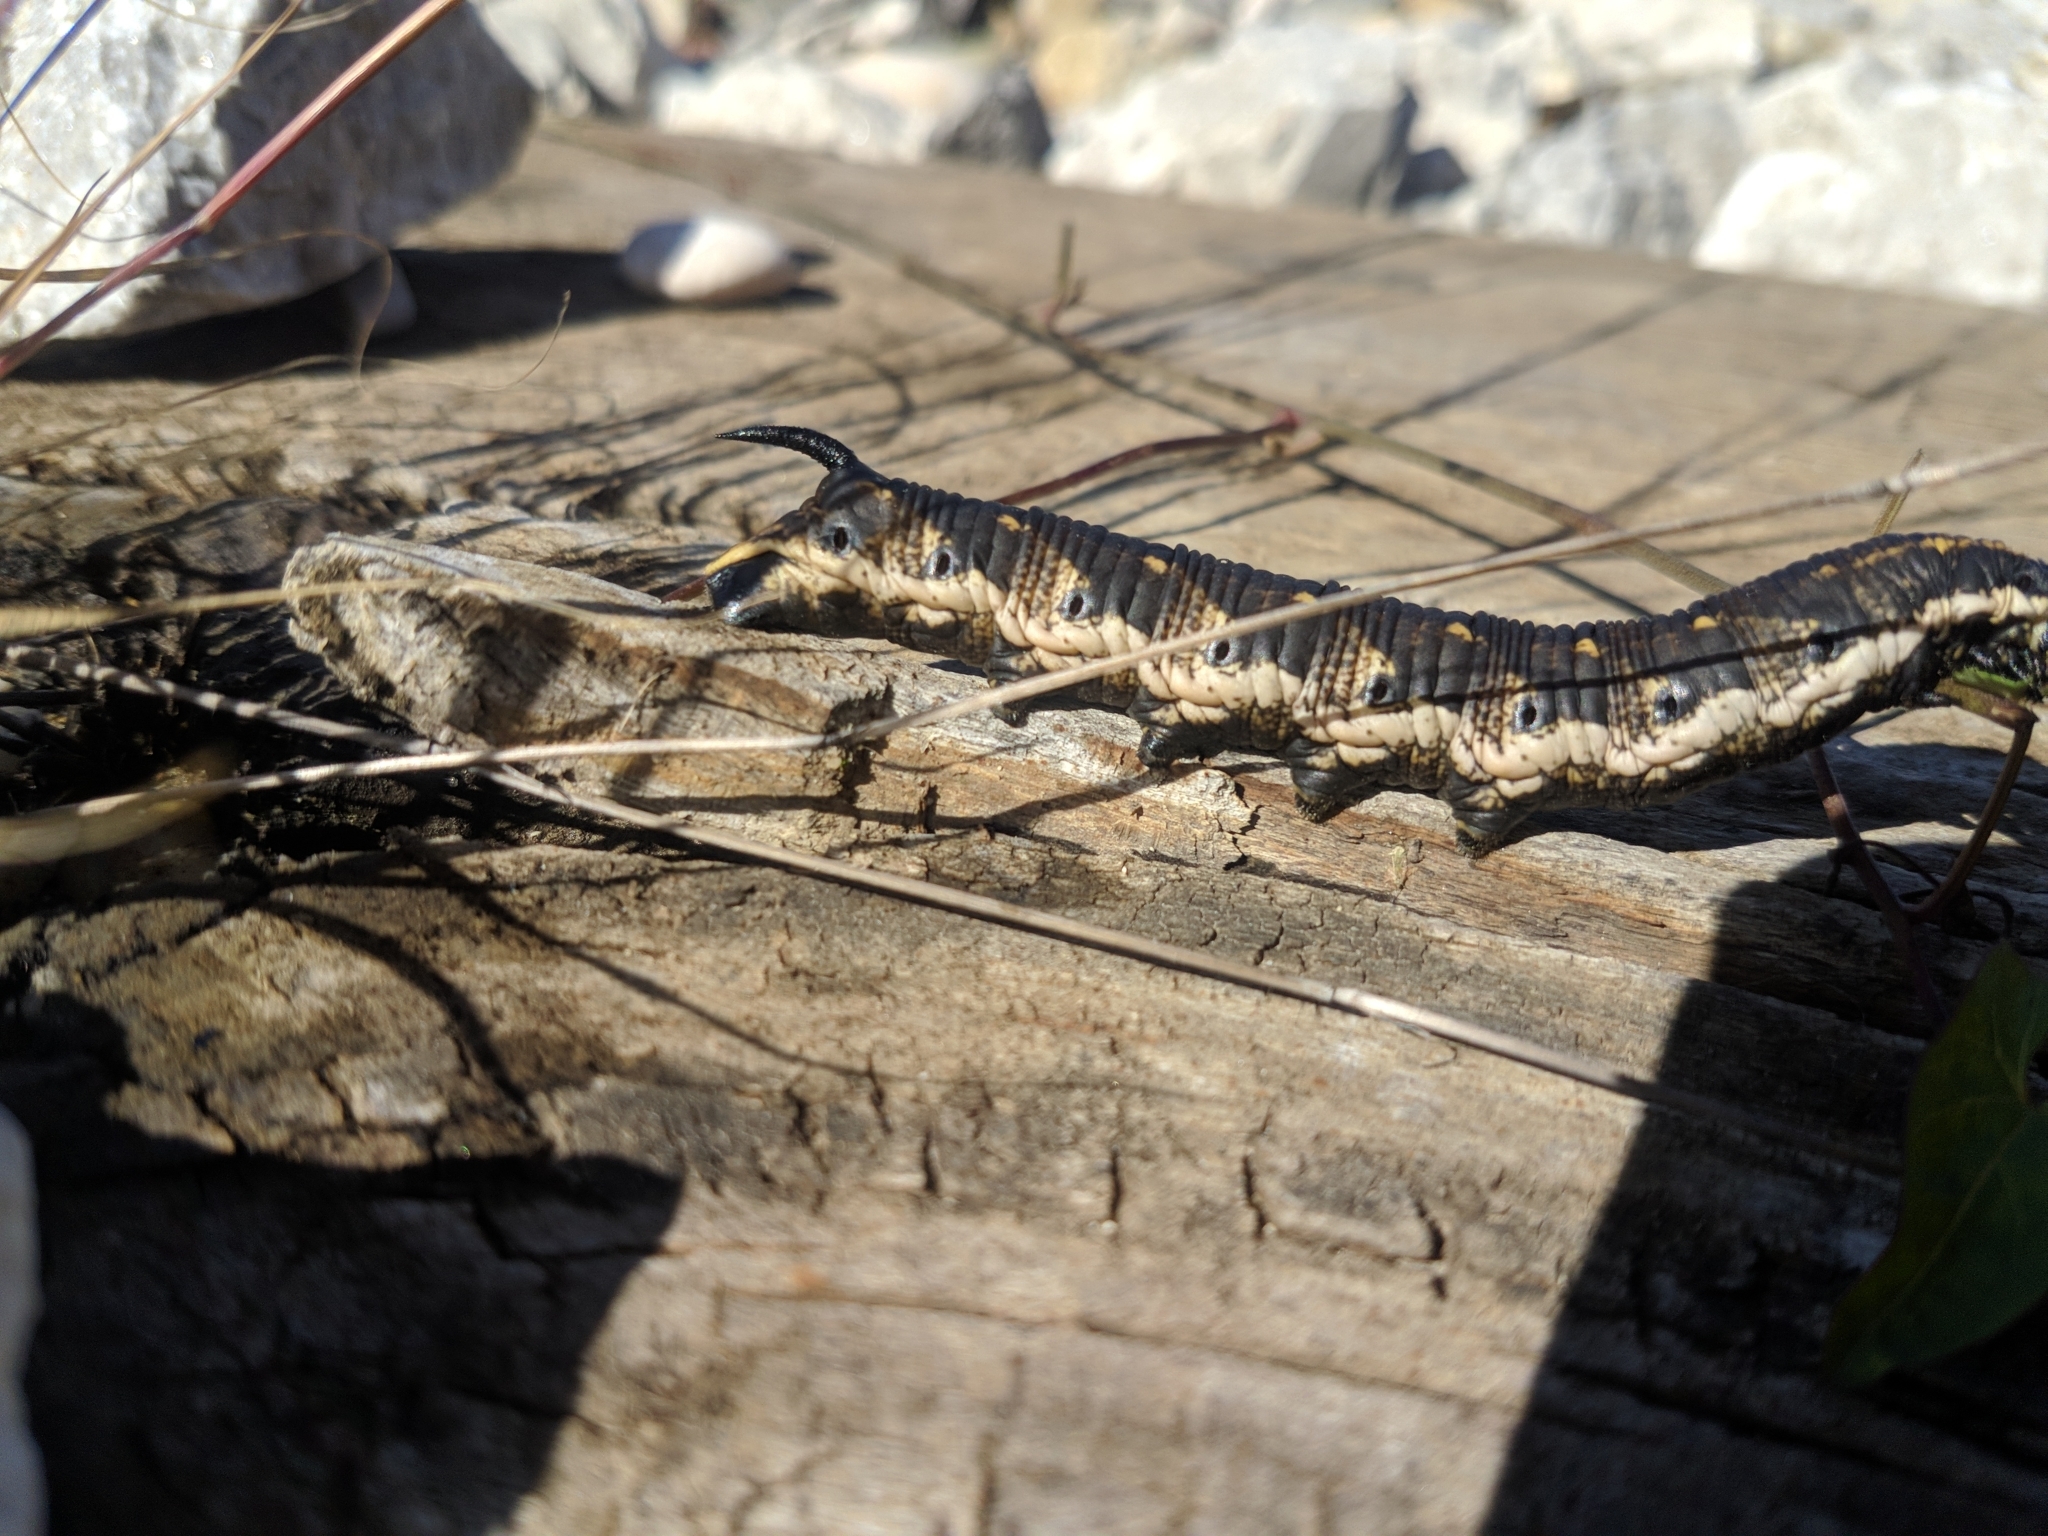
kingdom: Animalia
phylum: Arthropoda
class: Insecta
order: Lepidoptera
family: Sphingidae
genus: Agrius
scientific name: Agrius convolvuli
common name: Convolvulus hawkmoth
